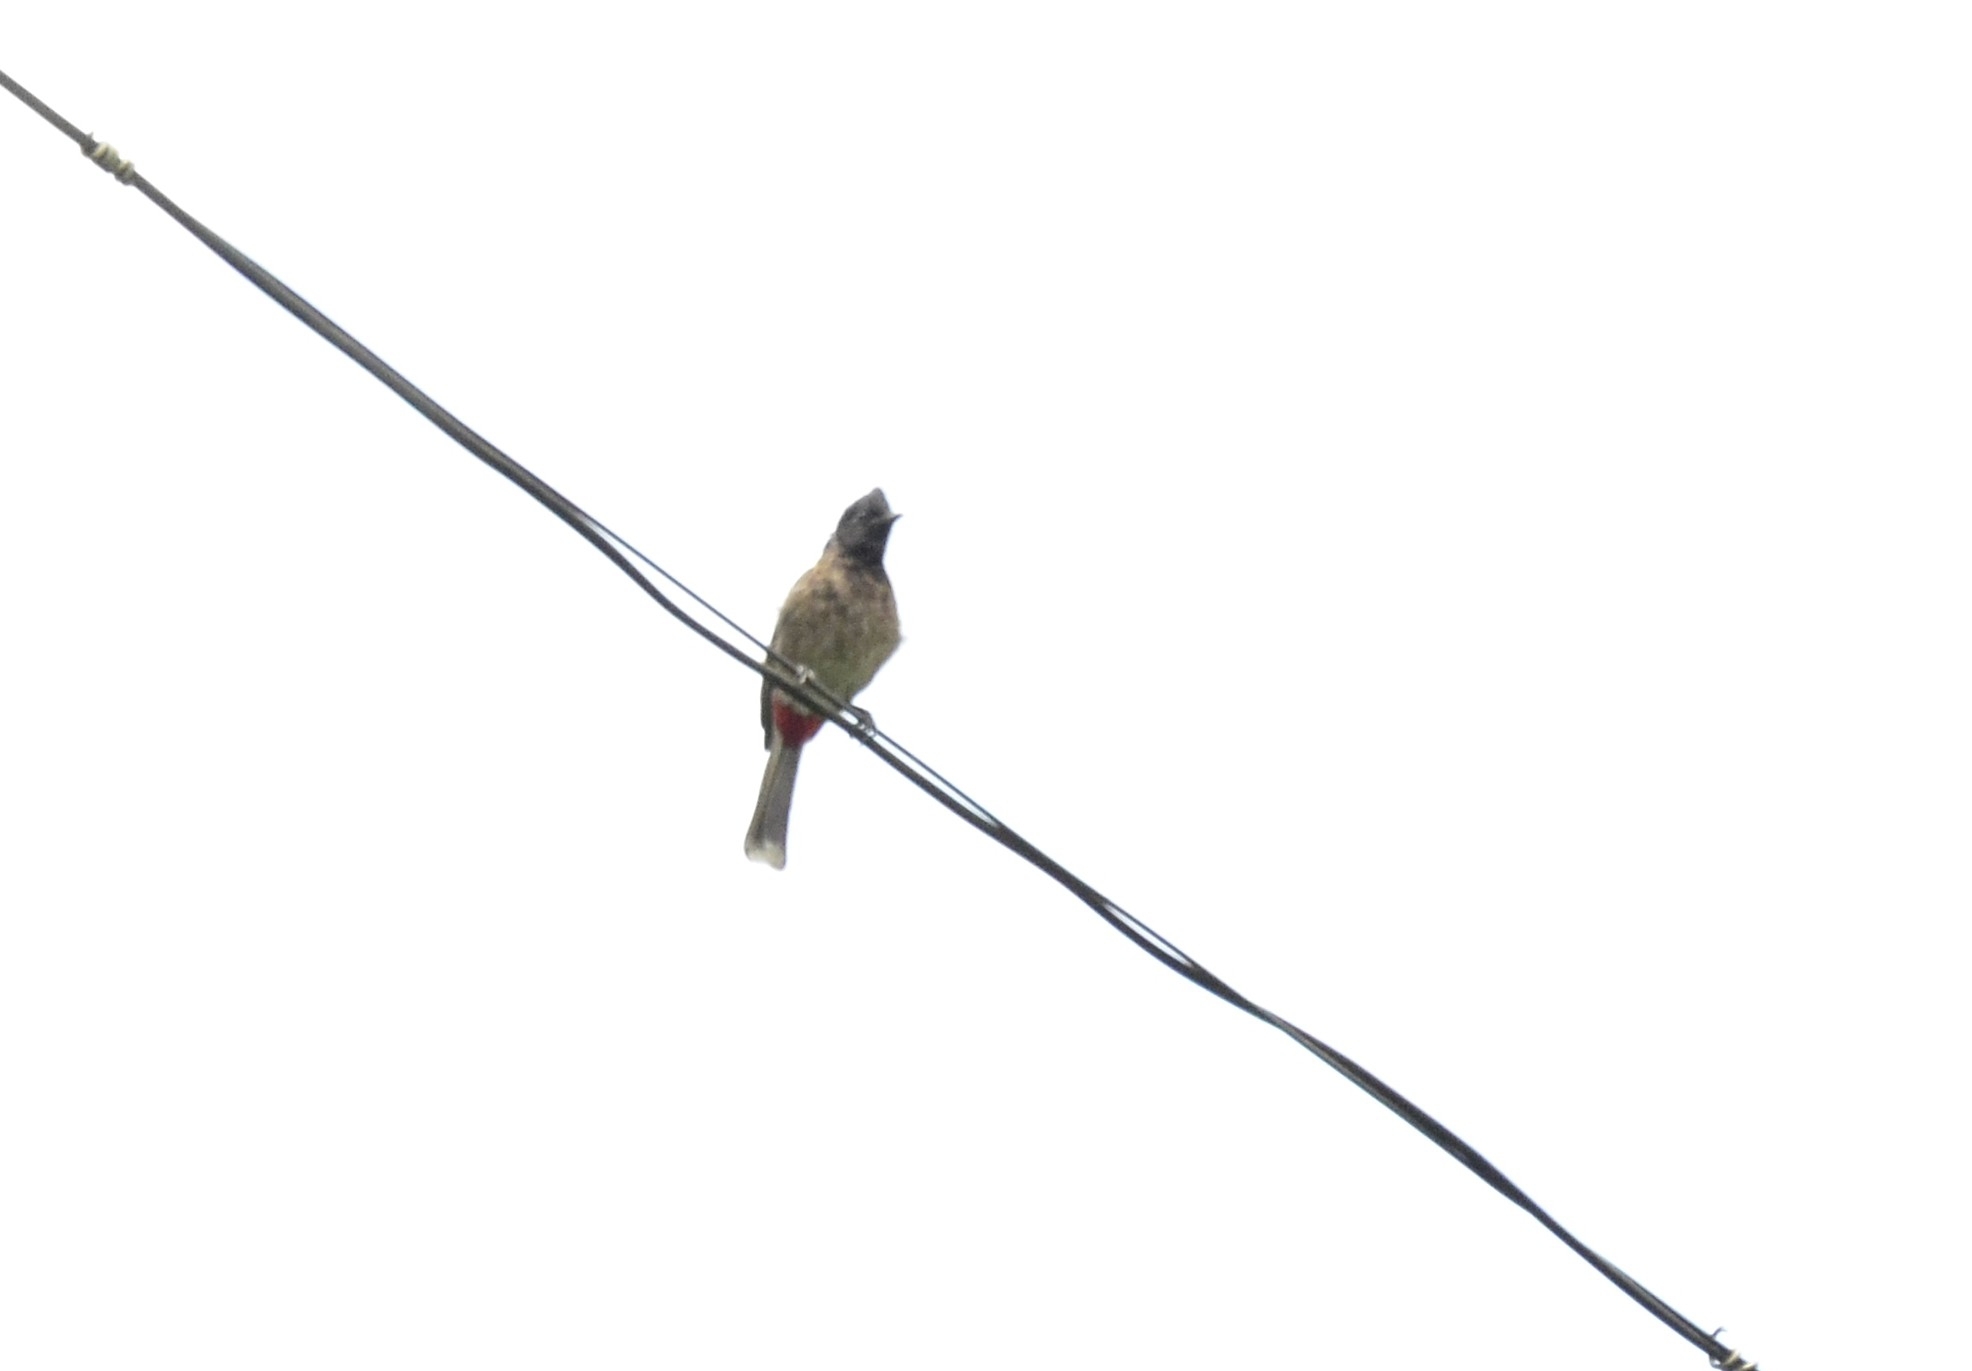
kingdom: Animalia
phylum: Chordata
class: Aves
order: Passeriformes
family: Pycnonotidae
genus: Pycnonotus
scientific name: Pycnonotus cafer
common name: Red-vented bulbul
